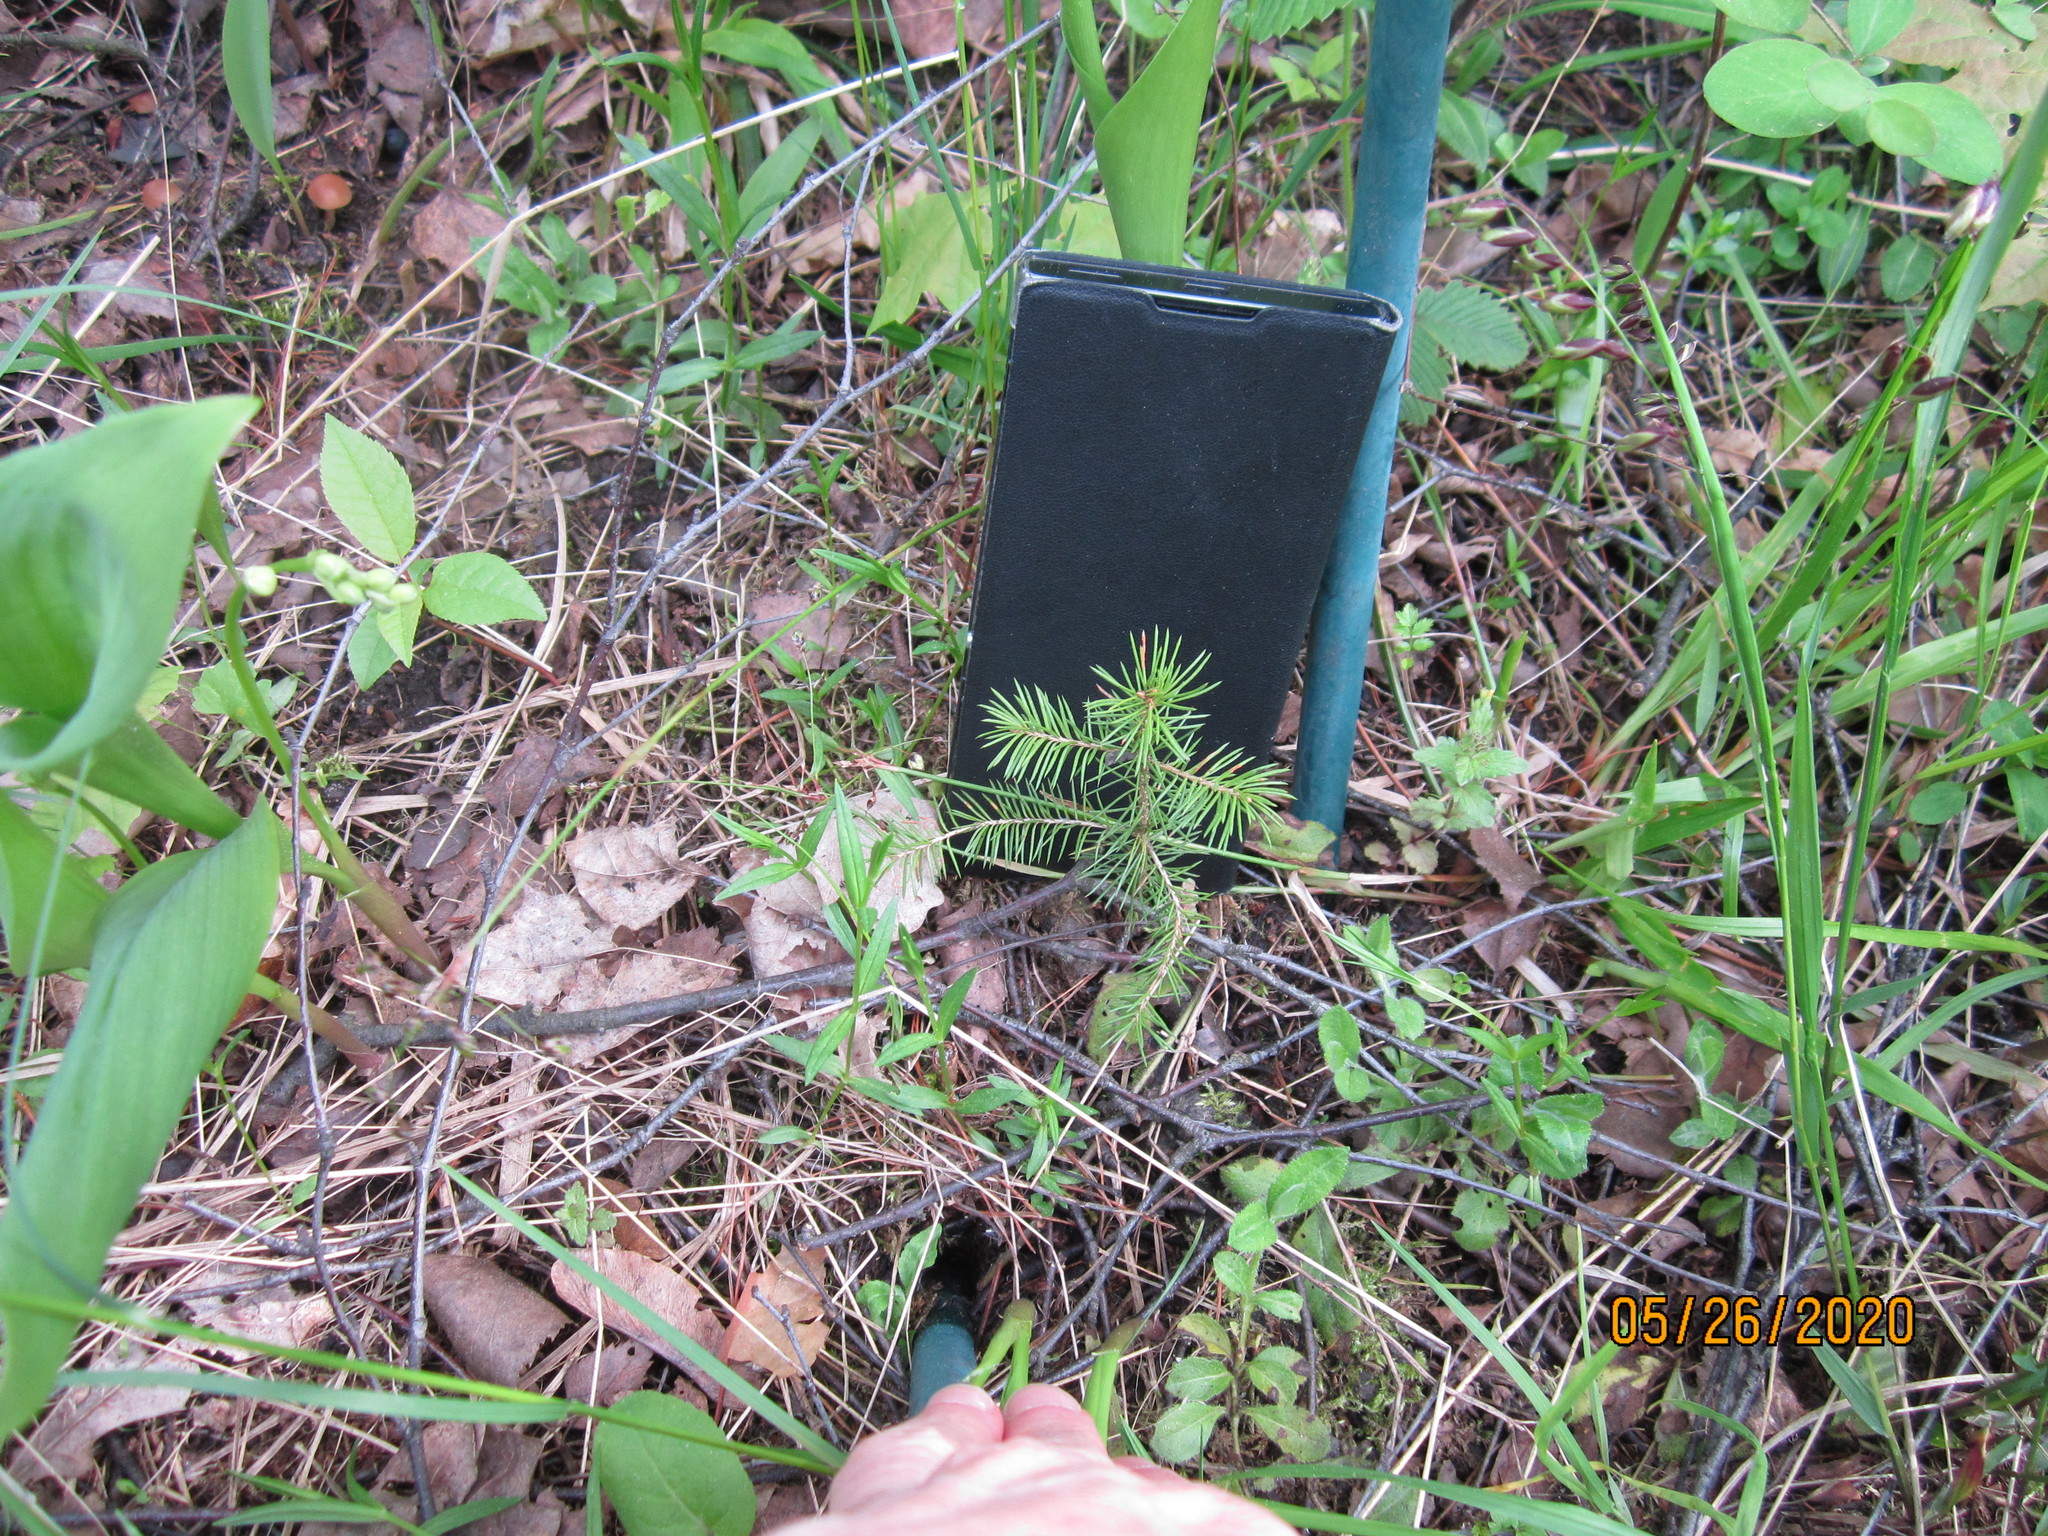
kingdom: Plantae
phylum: Tracheophyta
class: Pinopsida
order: Pinales
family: Pinaceae
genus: Picea
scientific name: Picea abies
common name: Norway spruce
